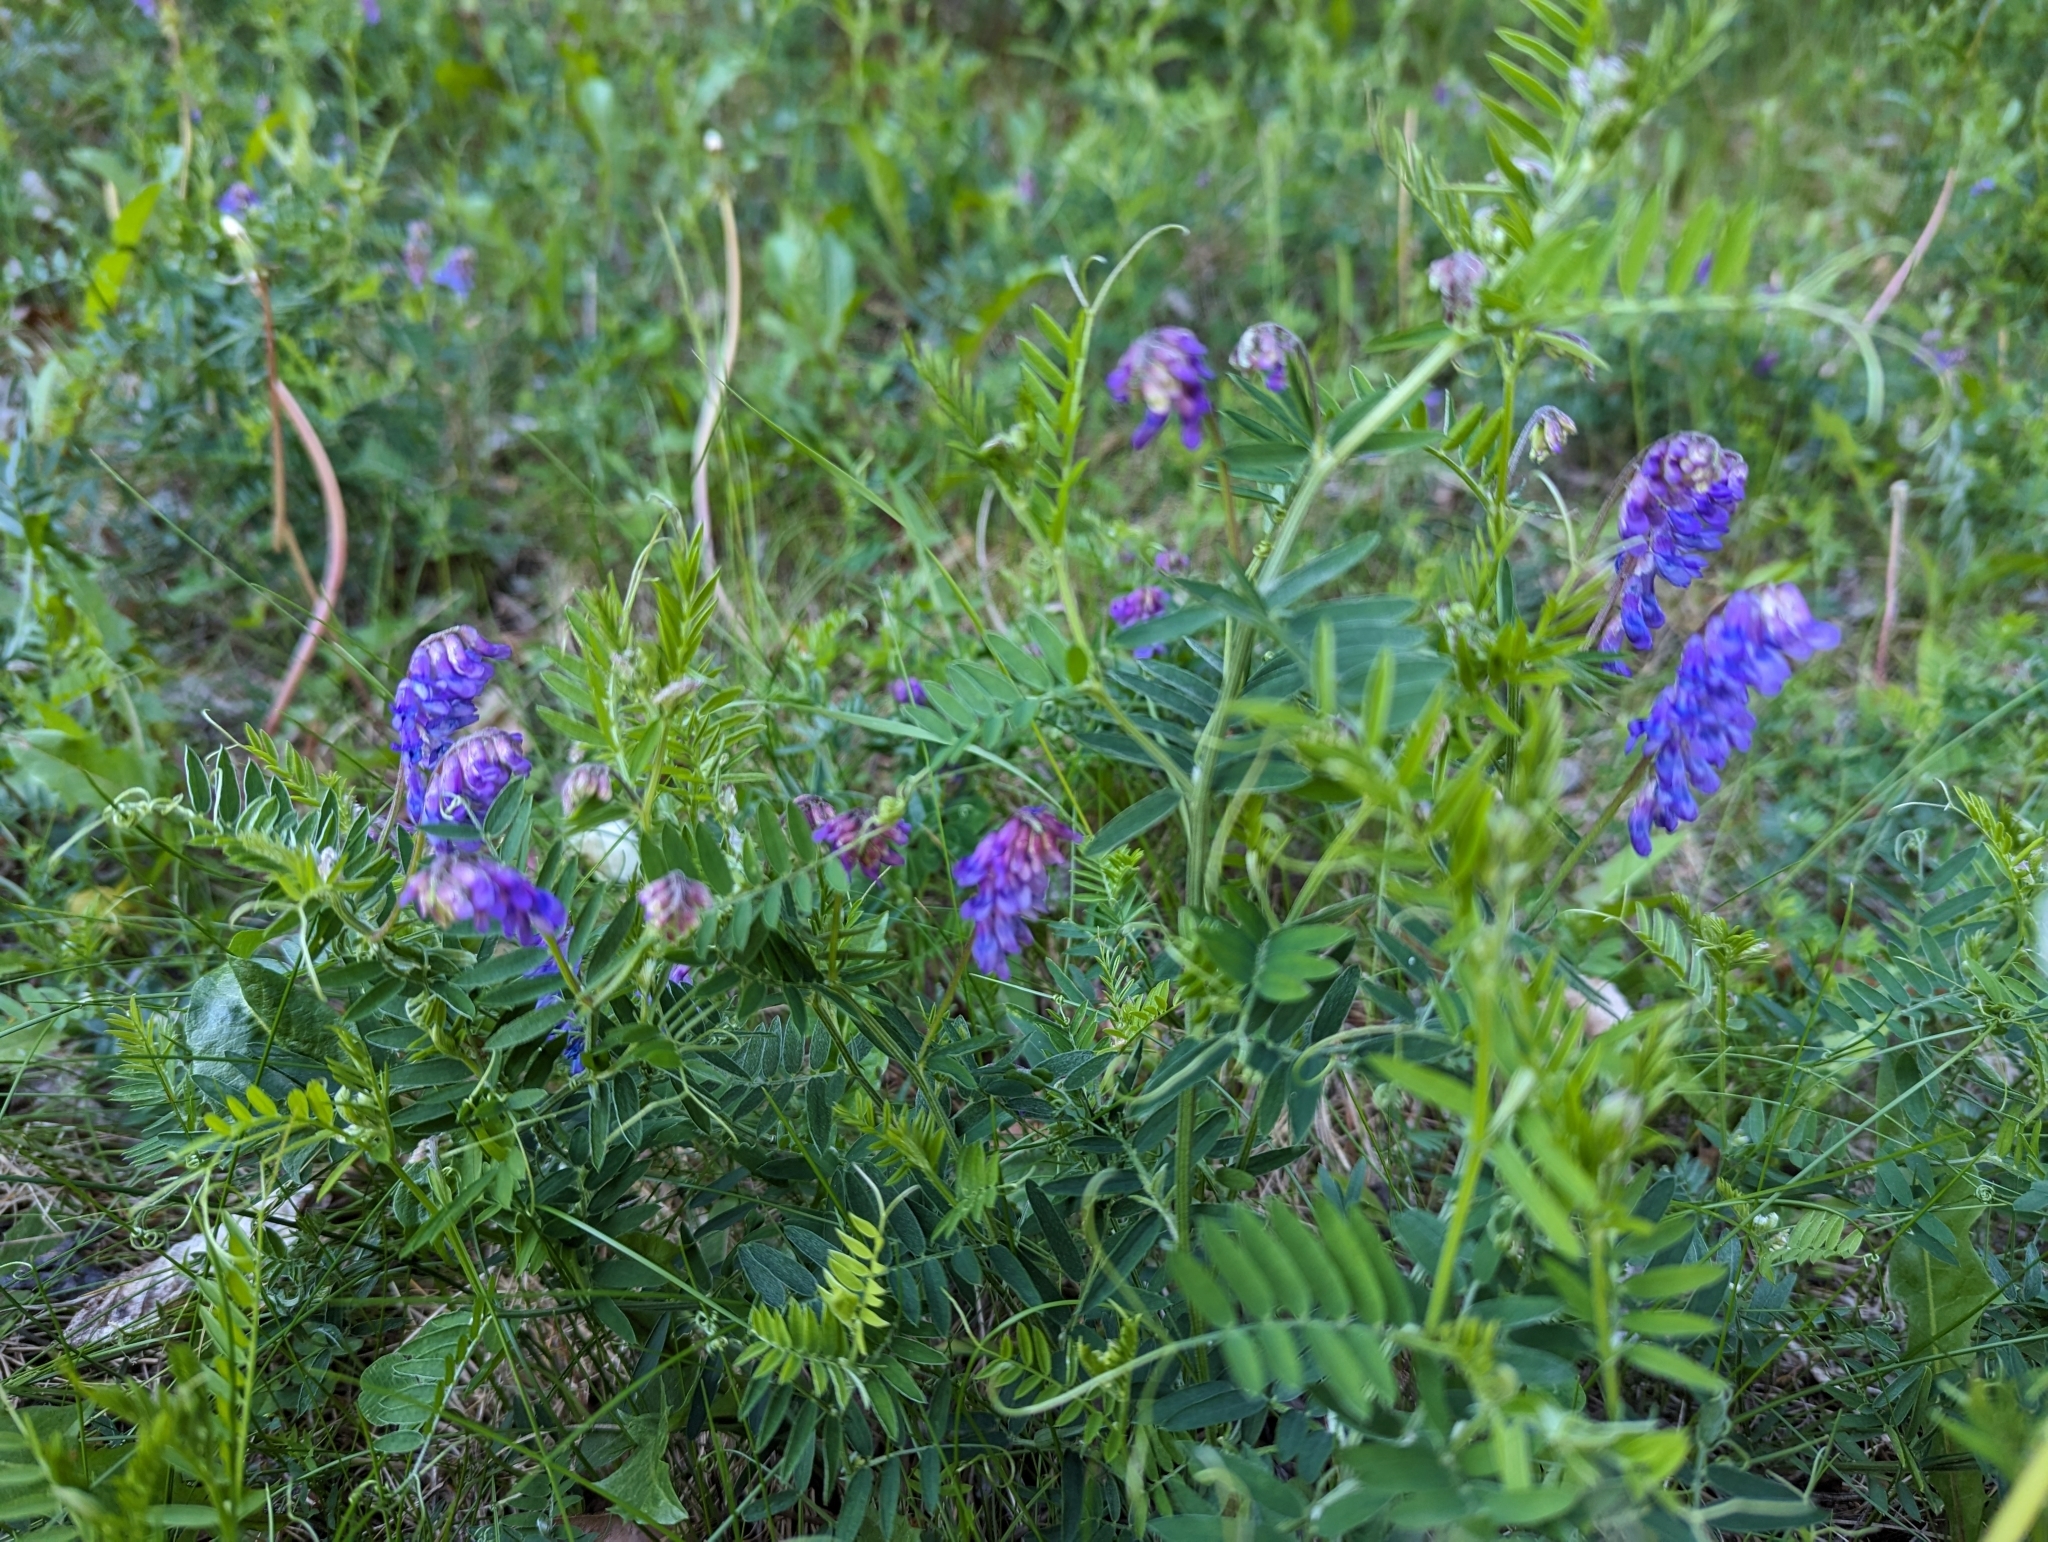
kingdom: Plantae
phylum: Tracheophyta
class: Magnoliopsida
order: Fabales
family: Fabaceae
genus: Vicia
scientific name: Vicia cracca
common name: Bird vetch
